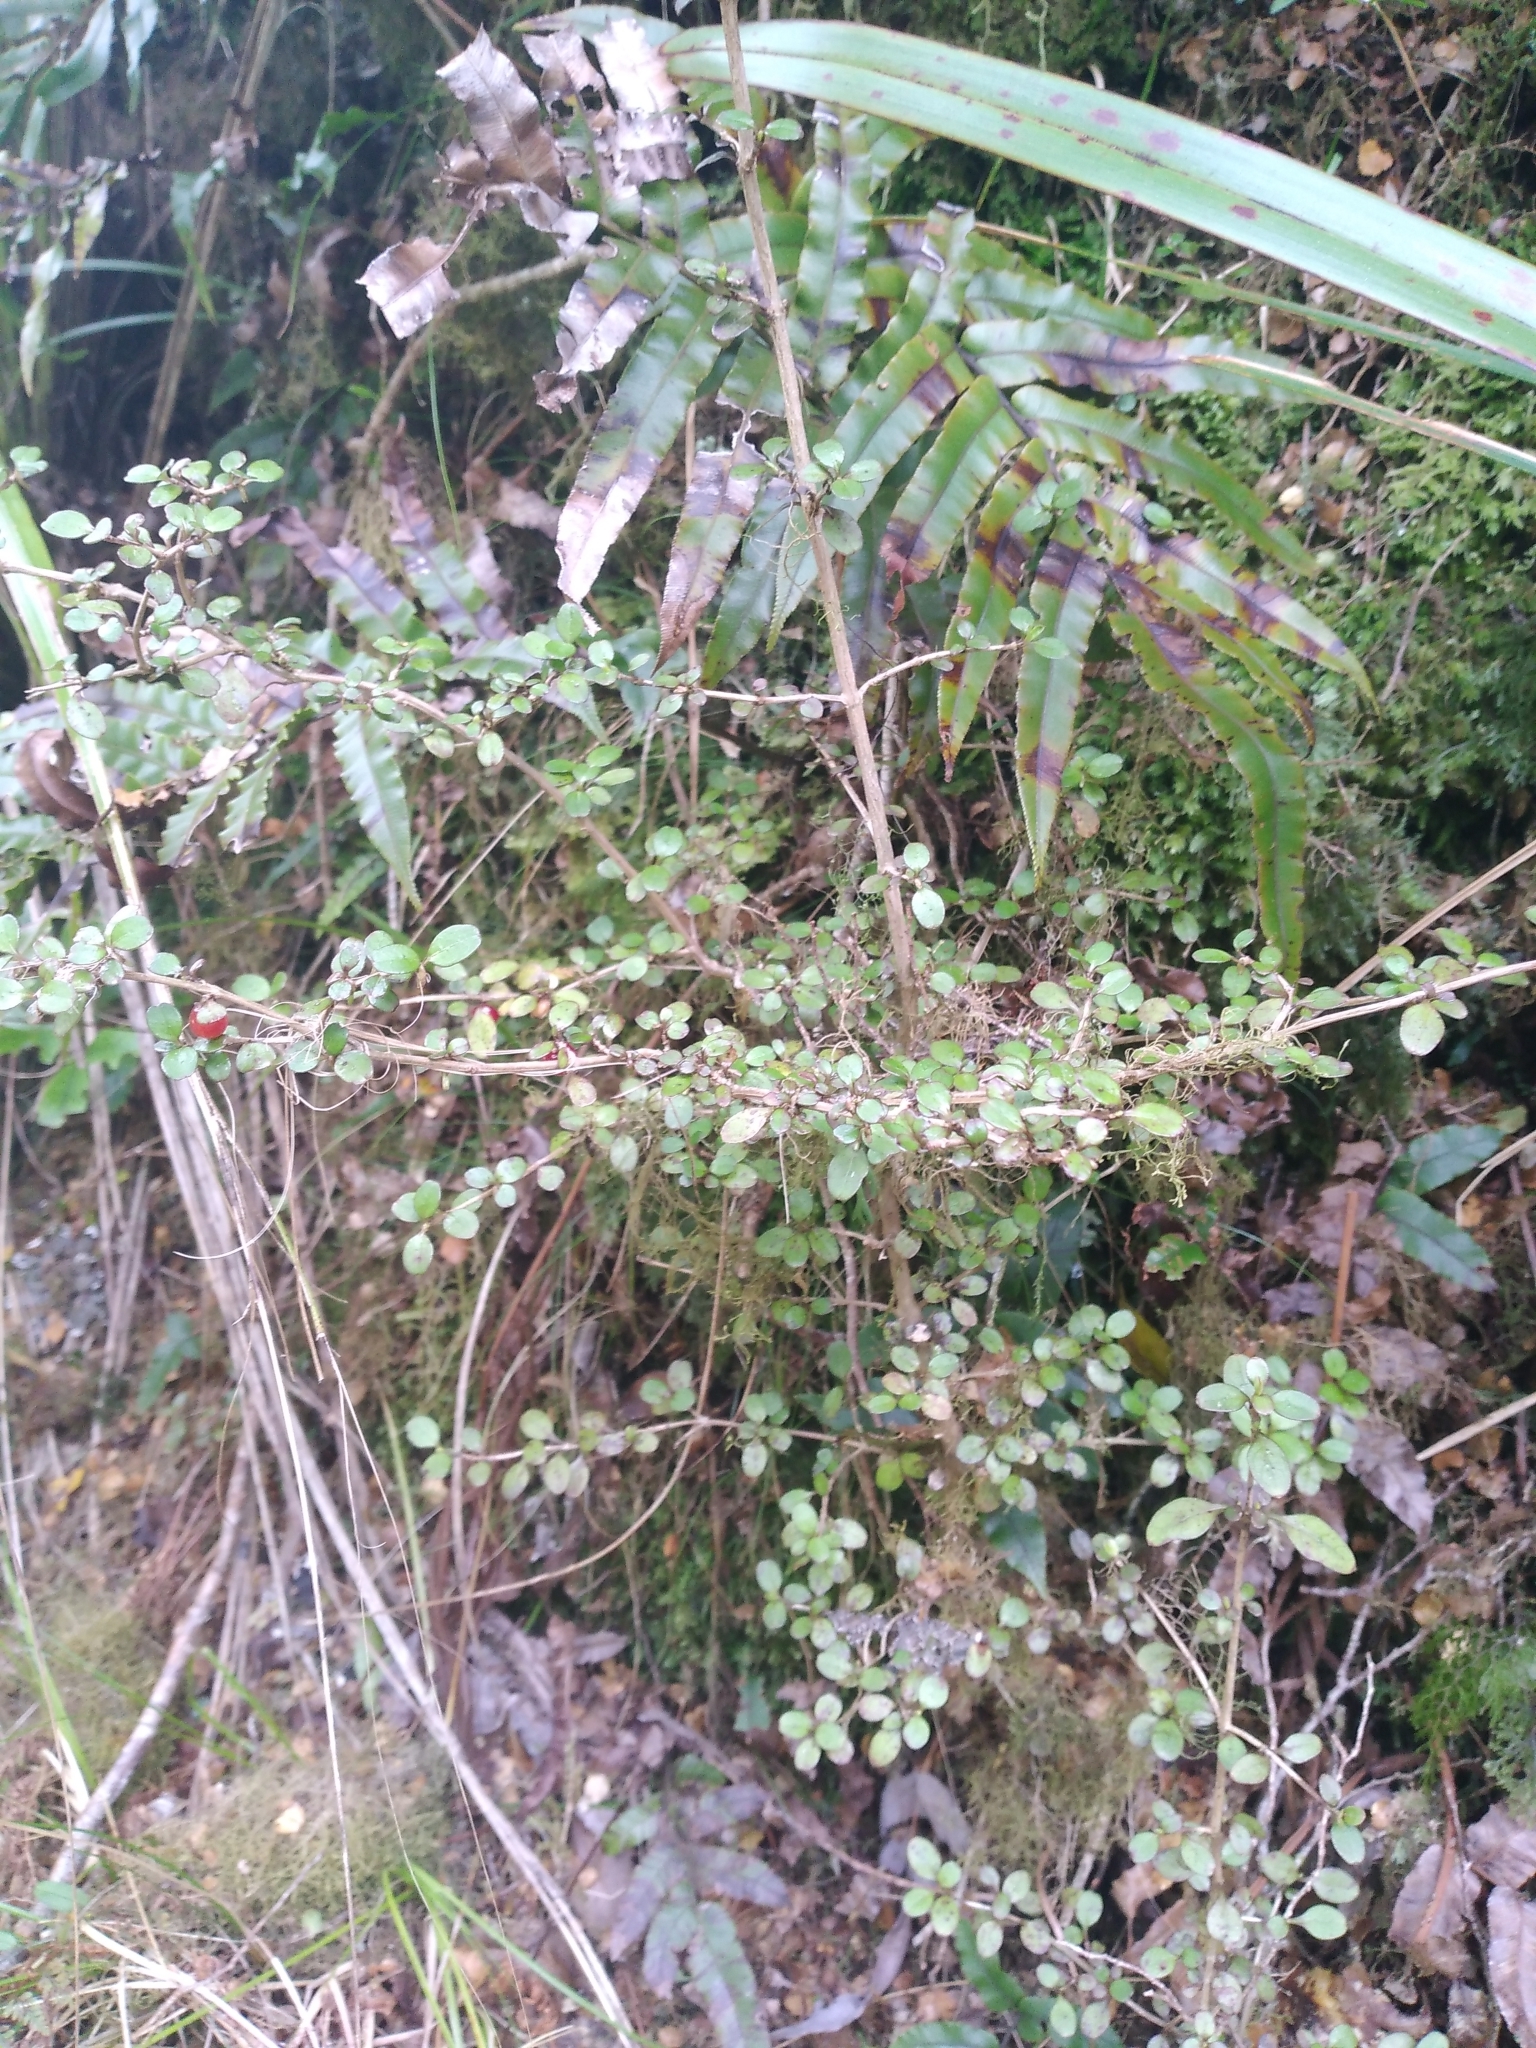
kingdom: Plantae
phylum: Tracheophyta
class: Magnoliopsida
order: Gentianales
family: Rubiaceae
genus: Coprosma
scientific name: Coprosma colensoi
